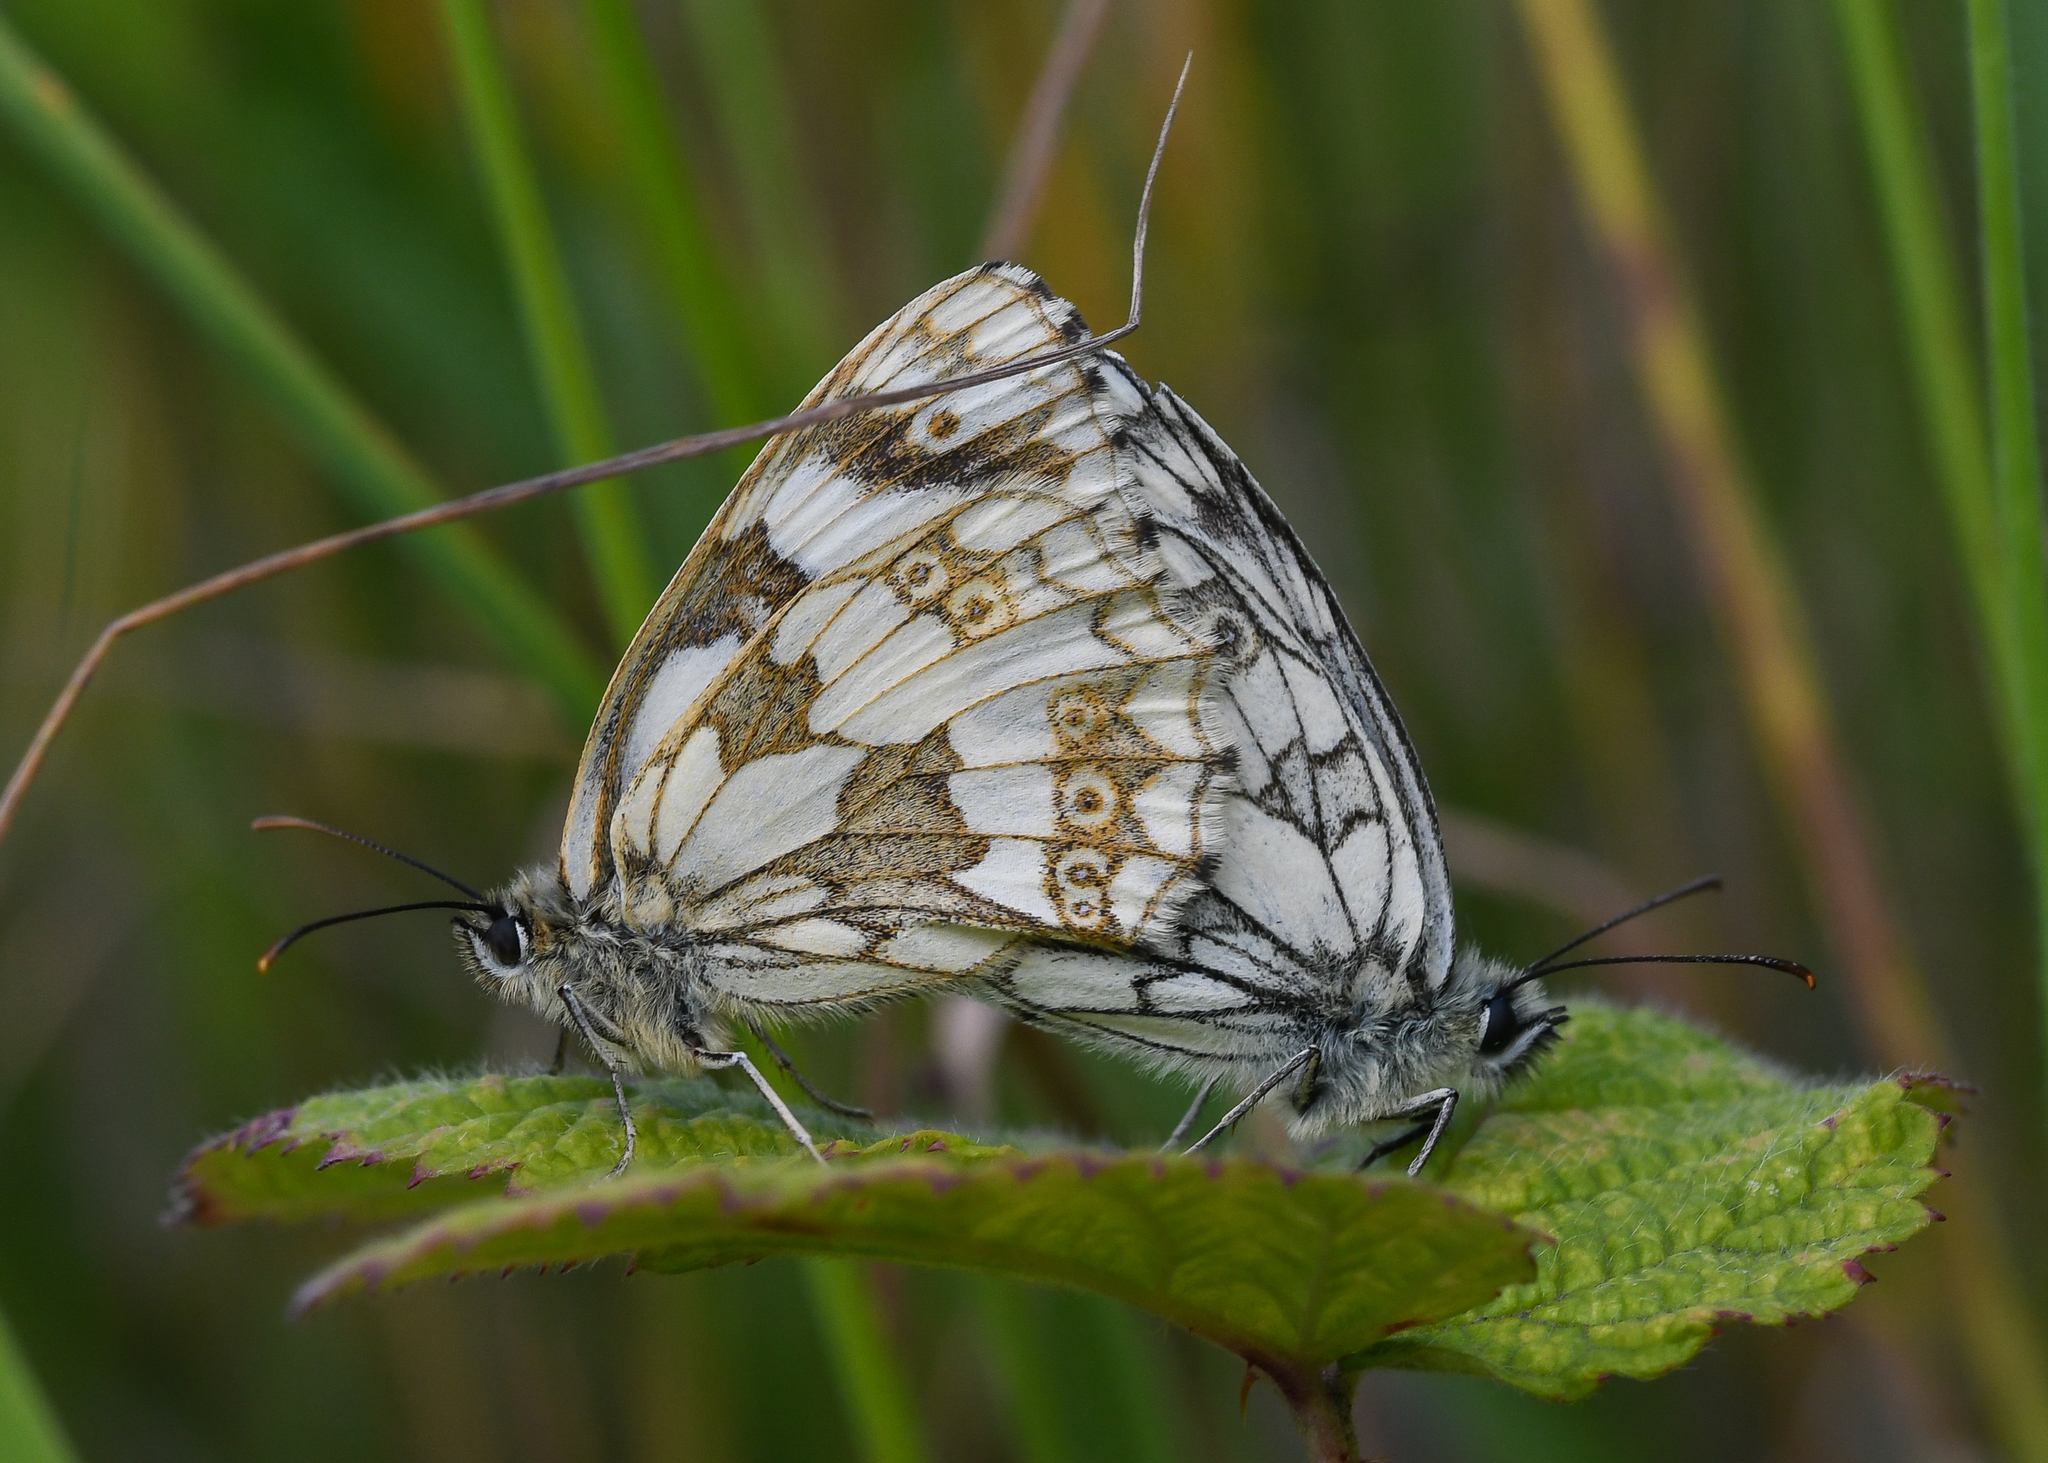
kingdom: Animalia
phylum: Arthropoda
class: Insecta
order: Lepidoptera
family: Nymphalidae
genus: Melanargia
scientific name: Melanargia galathea
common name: Marbled white
